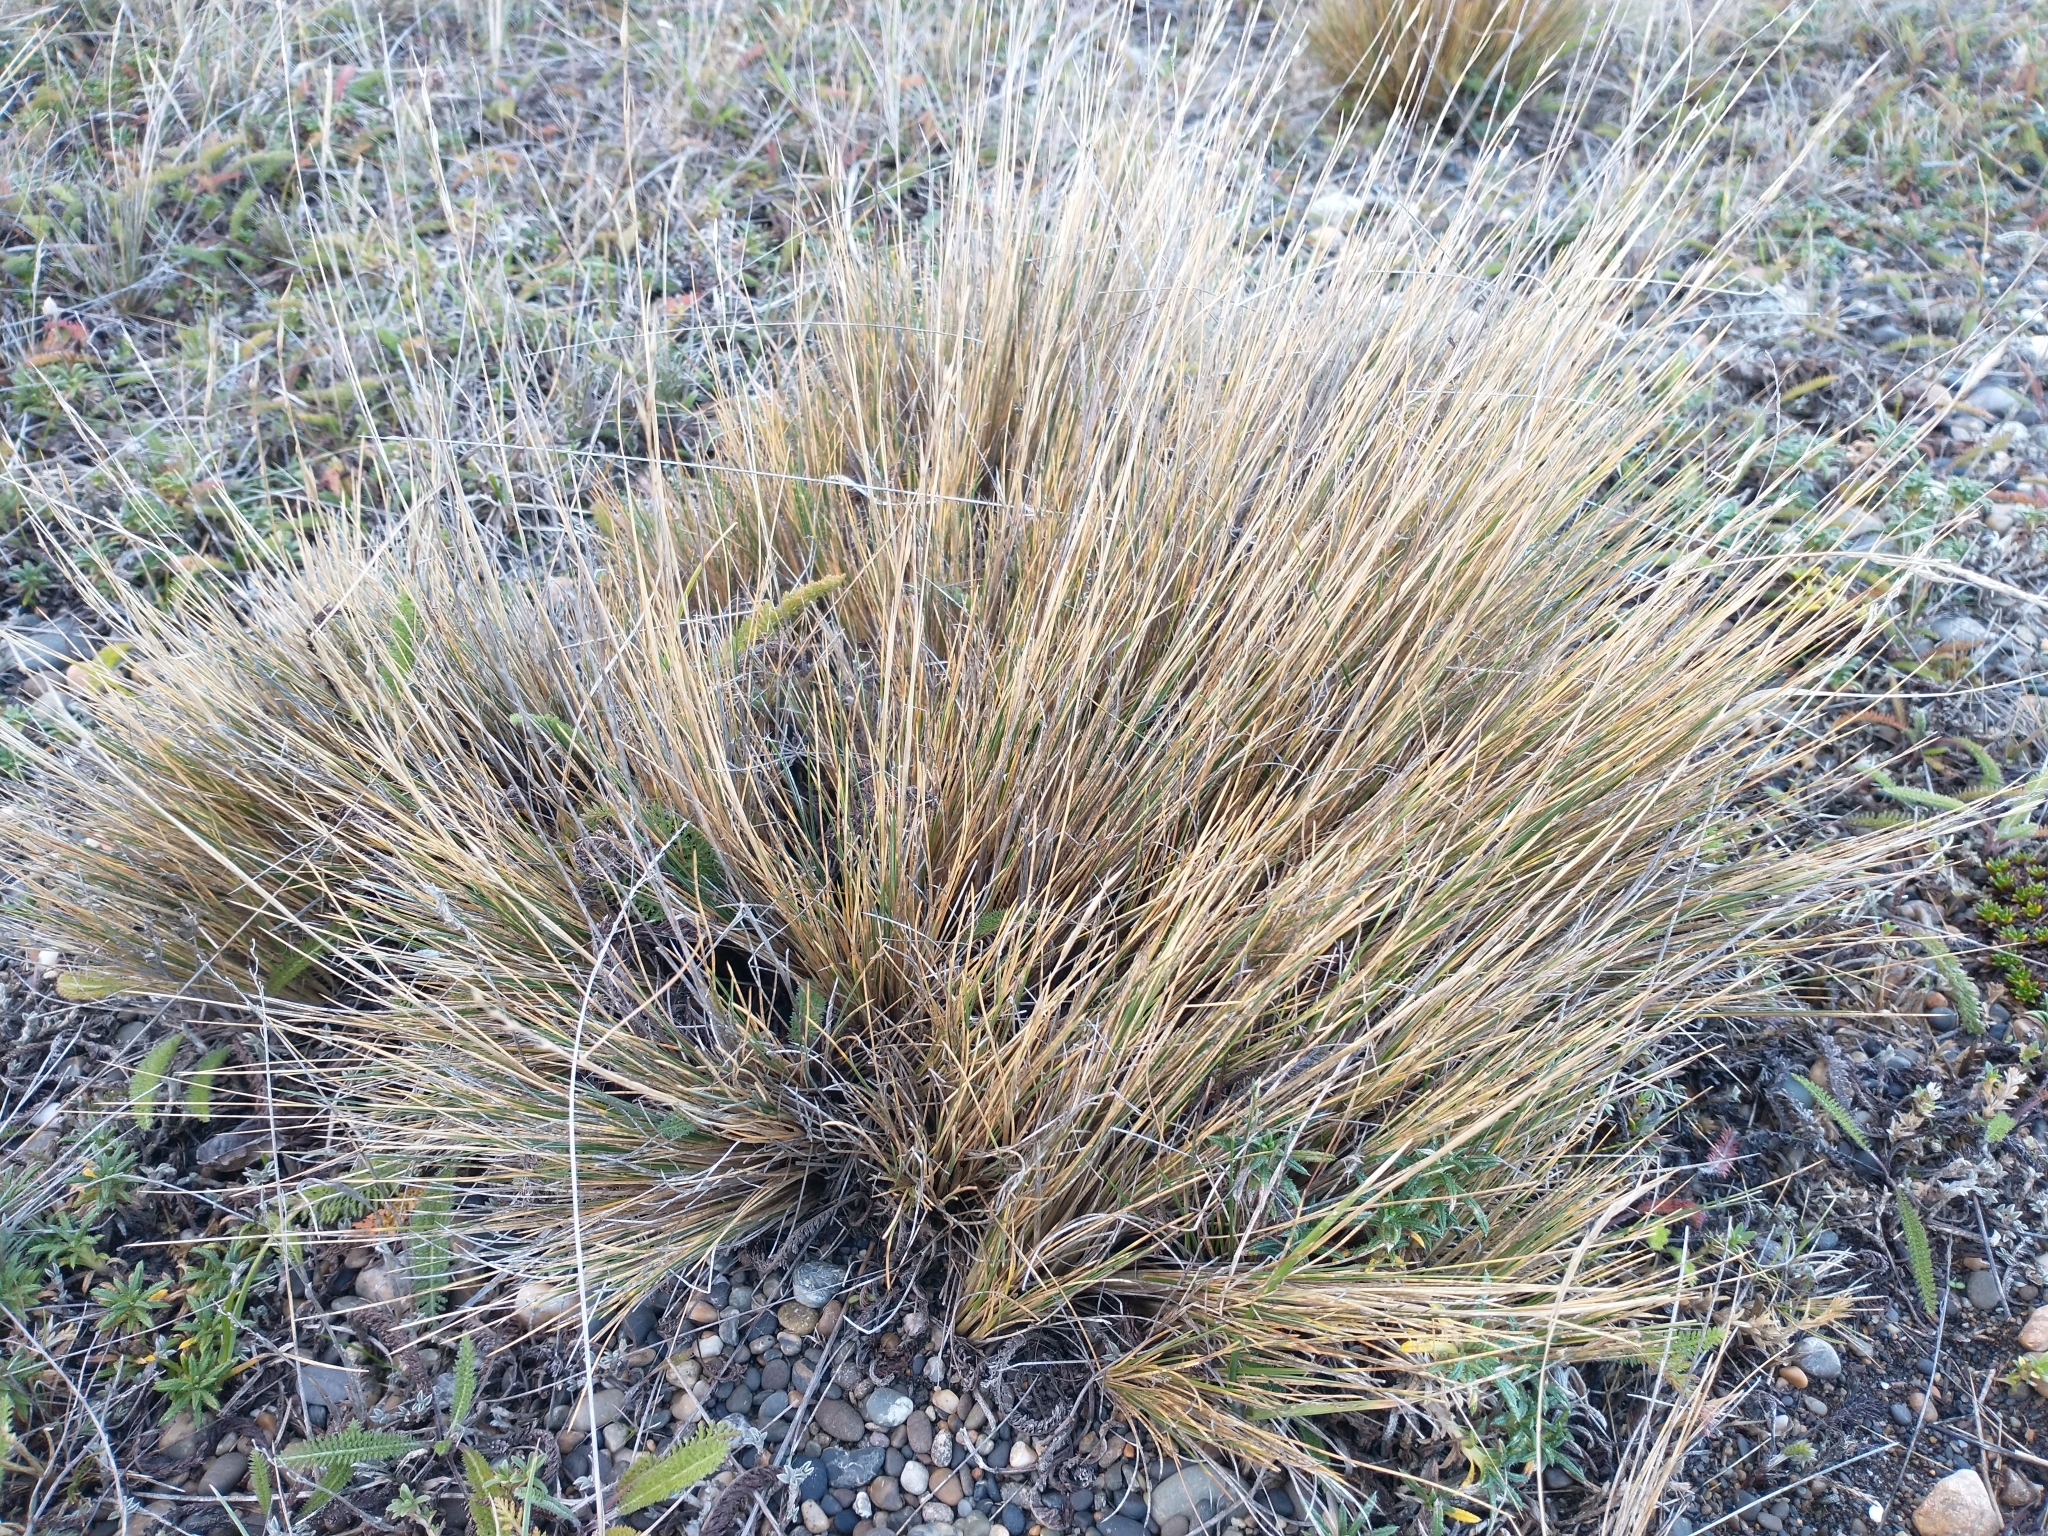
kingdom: Plantae
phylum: Tracheophyta
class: Liliopsida
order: Poales
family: Poaceae
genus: Festuca
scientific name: Festuca gracillima
